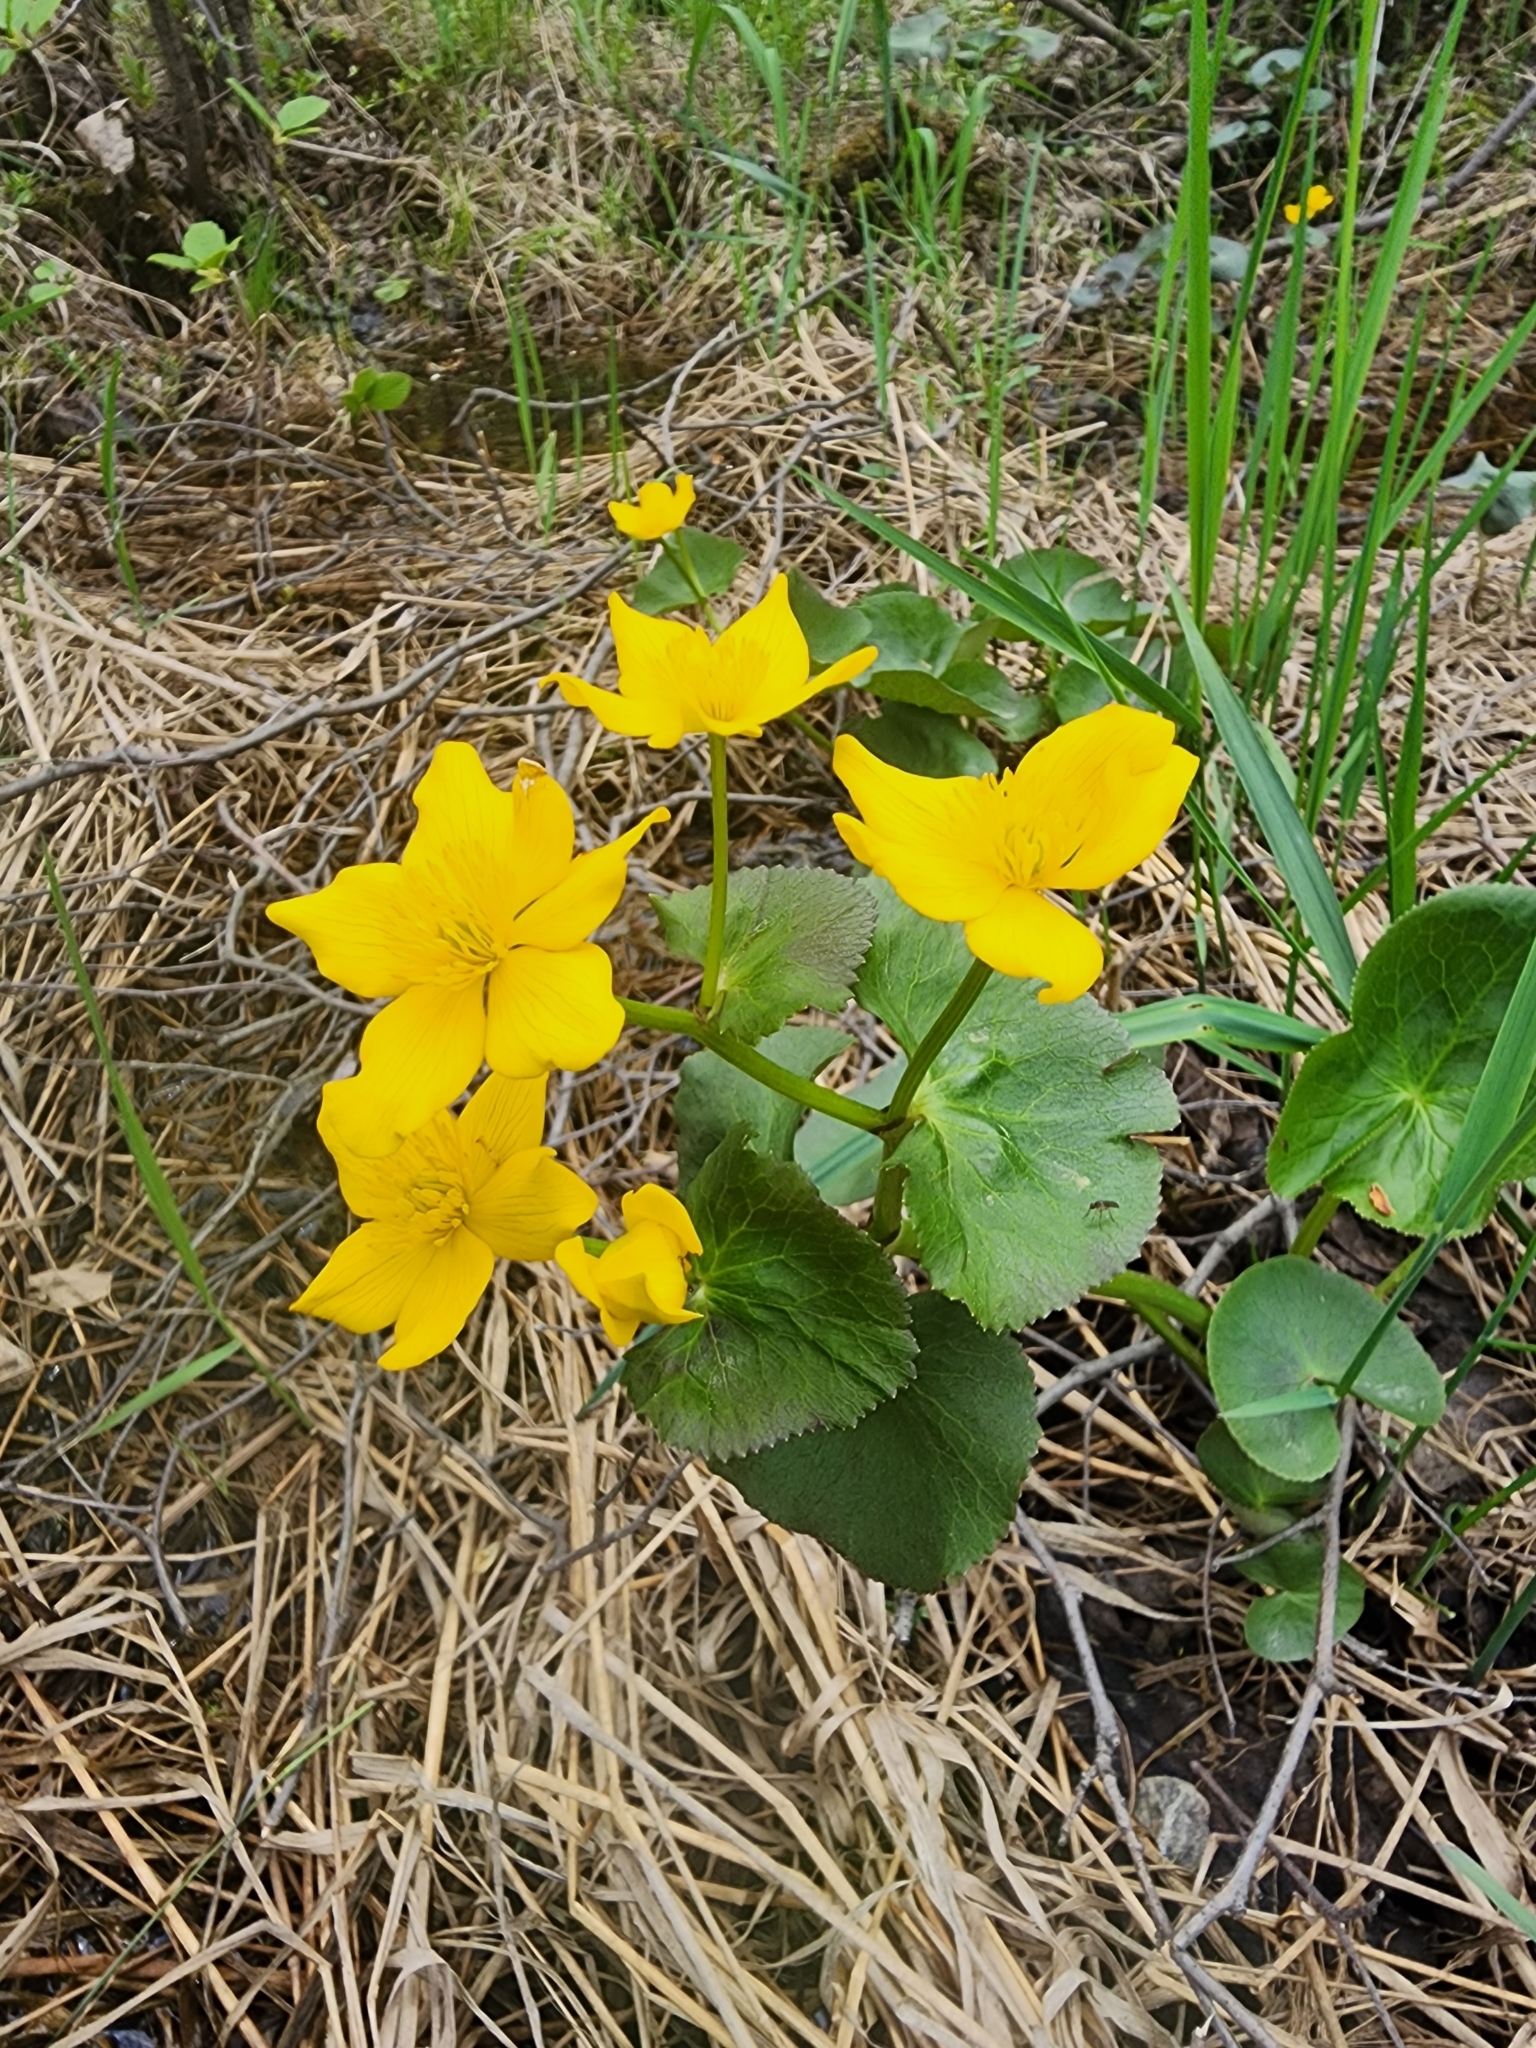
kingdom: Plantae
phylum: Tracheophyta
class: Magnoliopsida
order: Ranunculales
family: Ranunculaceae
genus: Caltha
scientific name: Caltha palustris
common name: Marsh marigold
